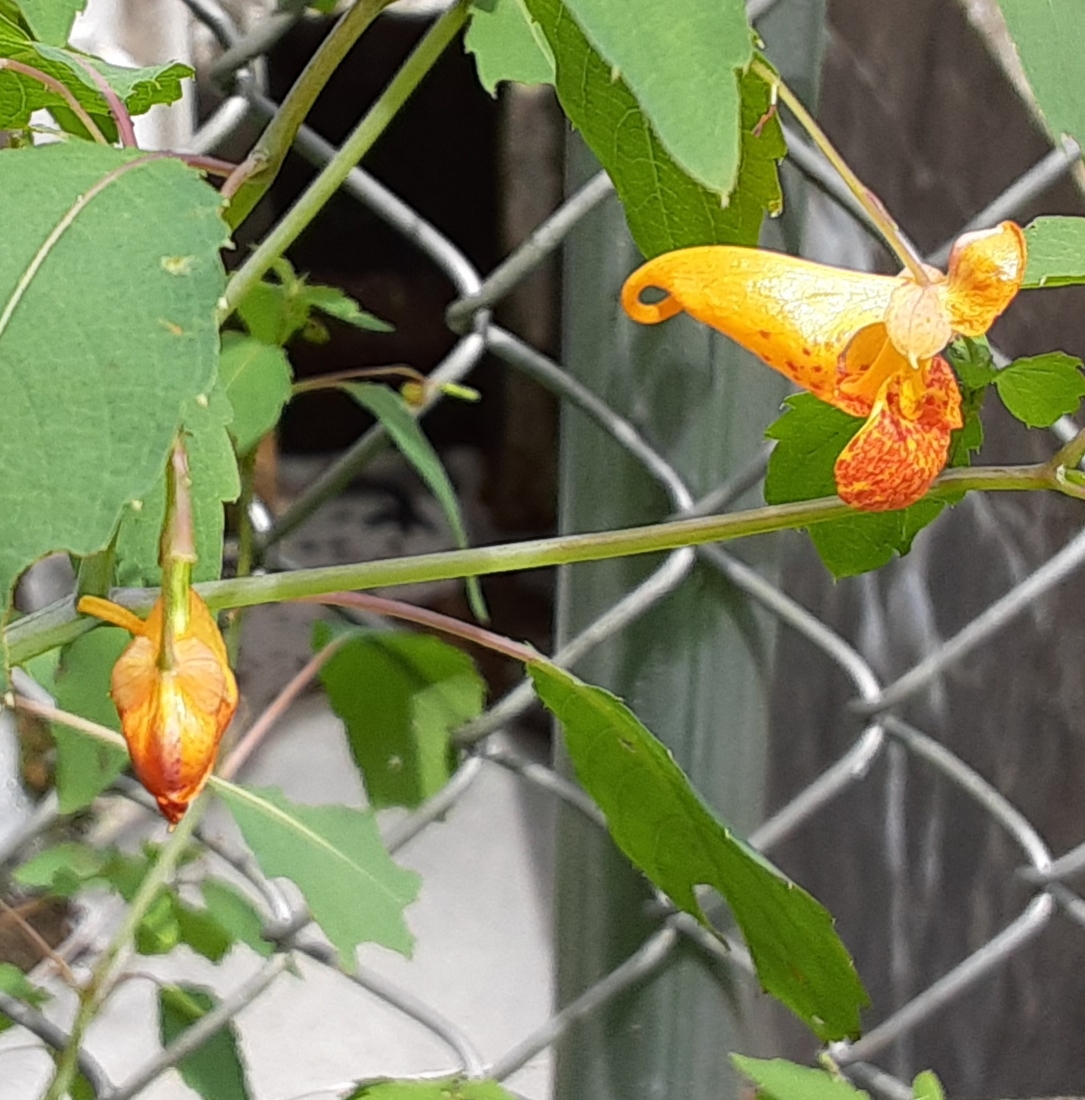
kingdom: Plantae
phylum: Tracheophyta
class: Magnoliopsida
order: Ericales
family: Balsaminaceae
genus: Impatiens
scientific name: Impatiens capensis
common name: Orange balsam
